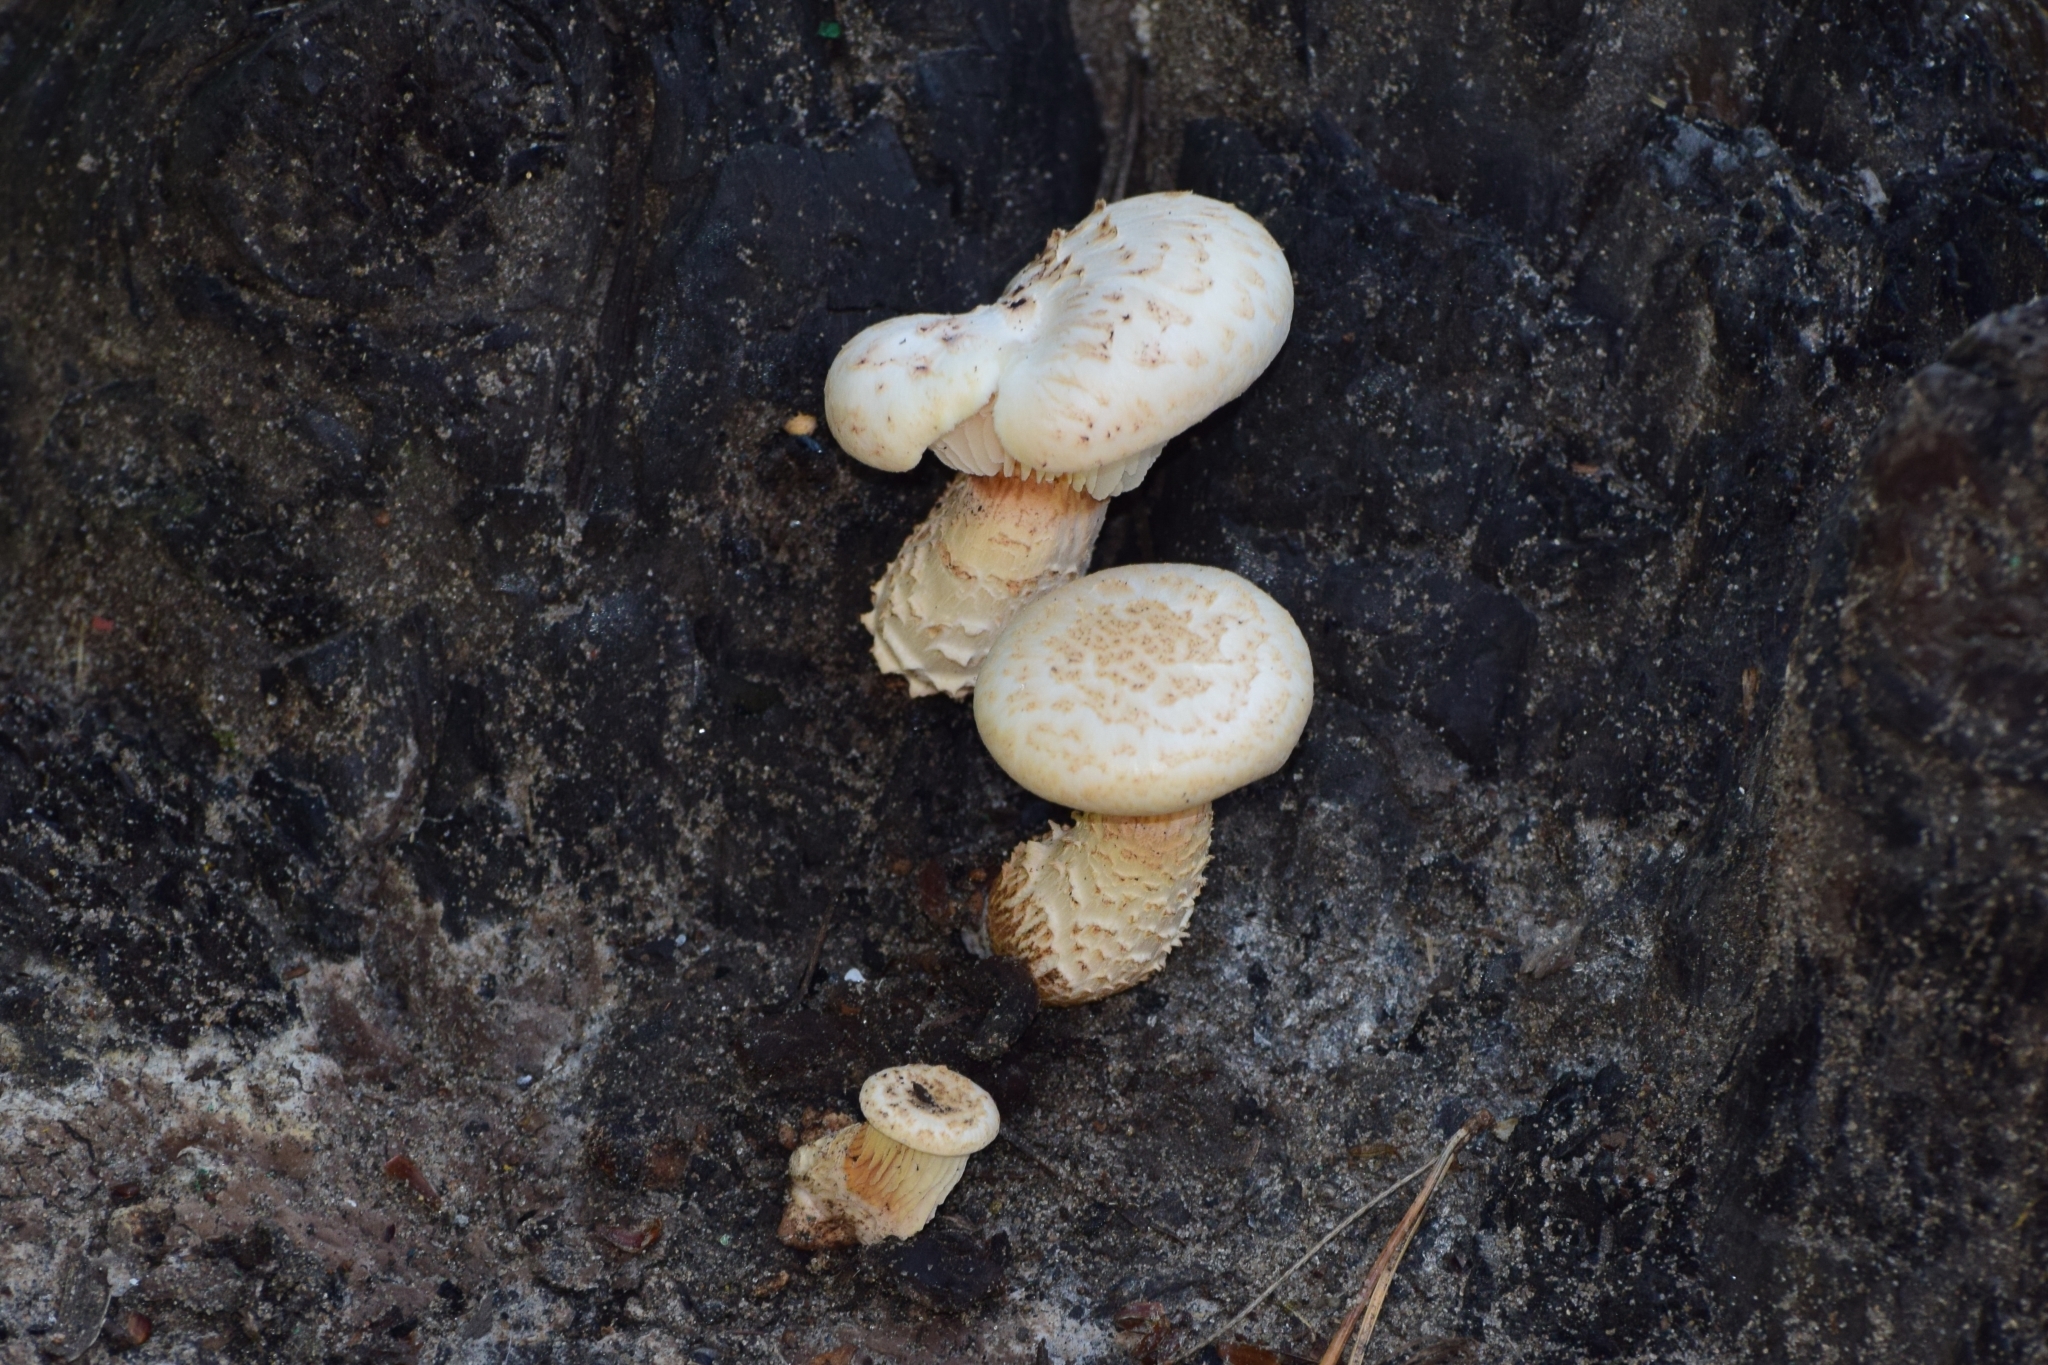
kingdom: Fungi
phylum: Basidiomycota
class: Agaricomycetes
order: Gloeophyllales
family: Gloeophyllaceae
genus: Neolentinus
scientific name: Neolentinus lepideus
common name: Scaly sawgill
